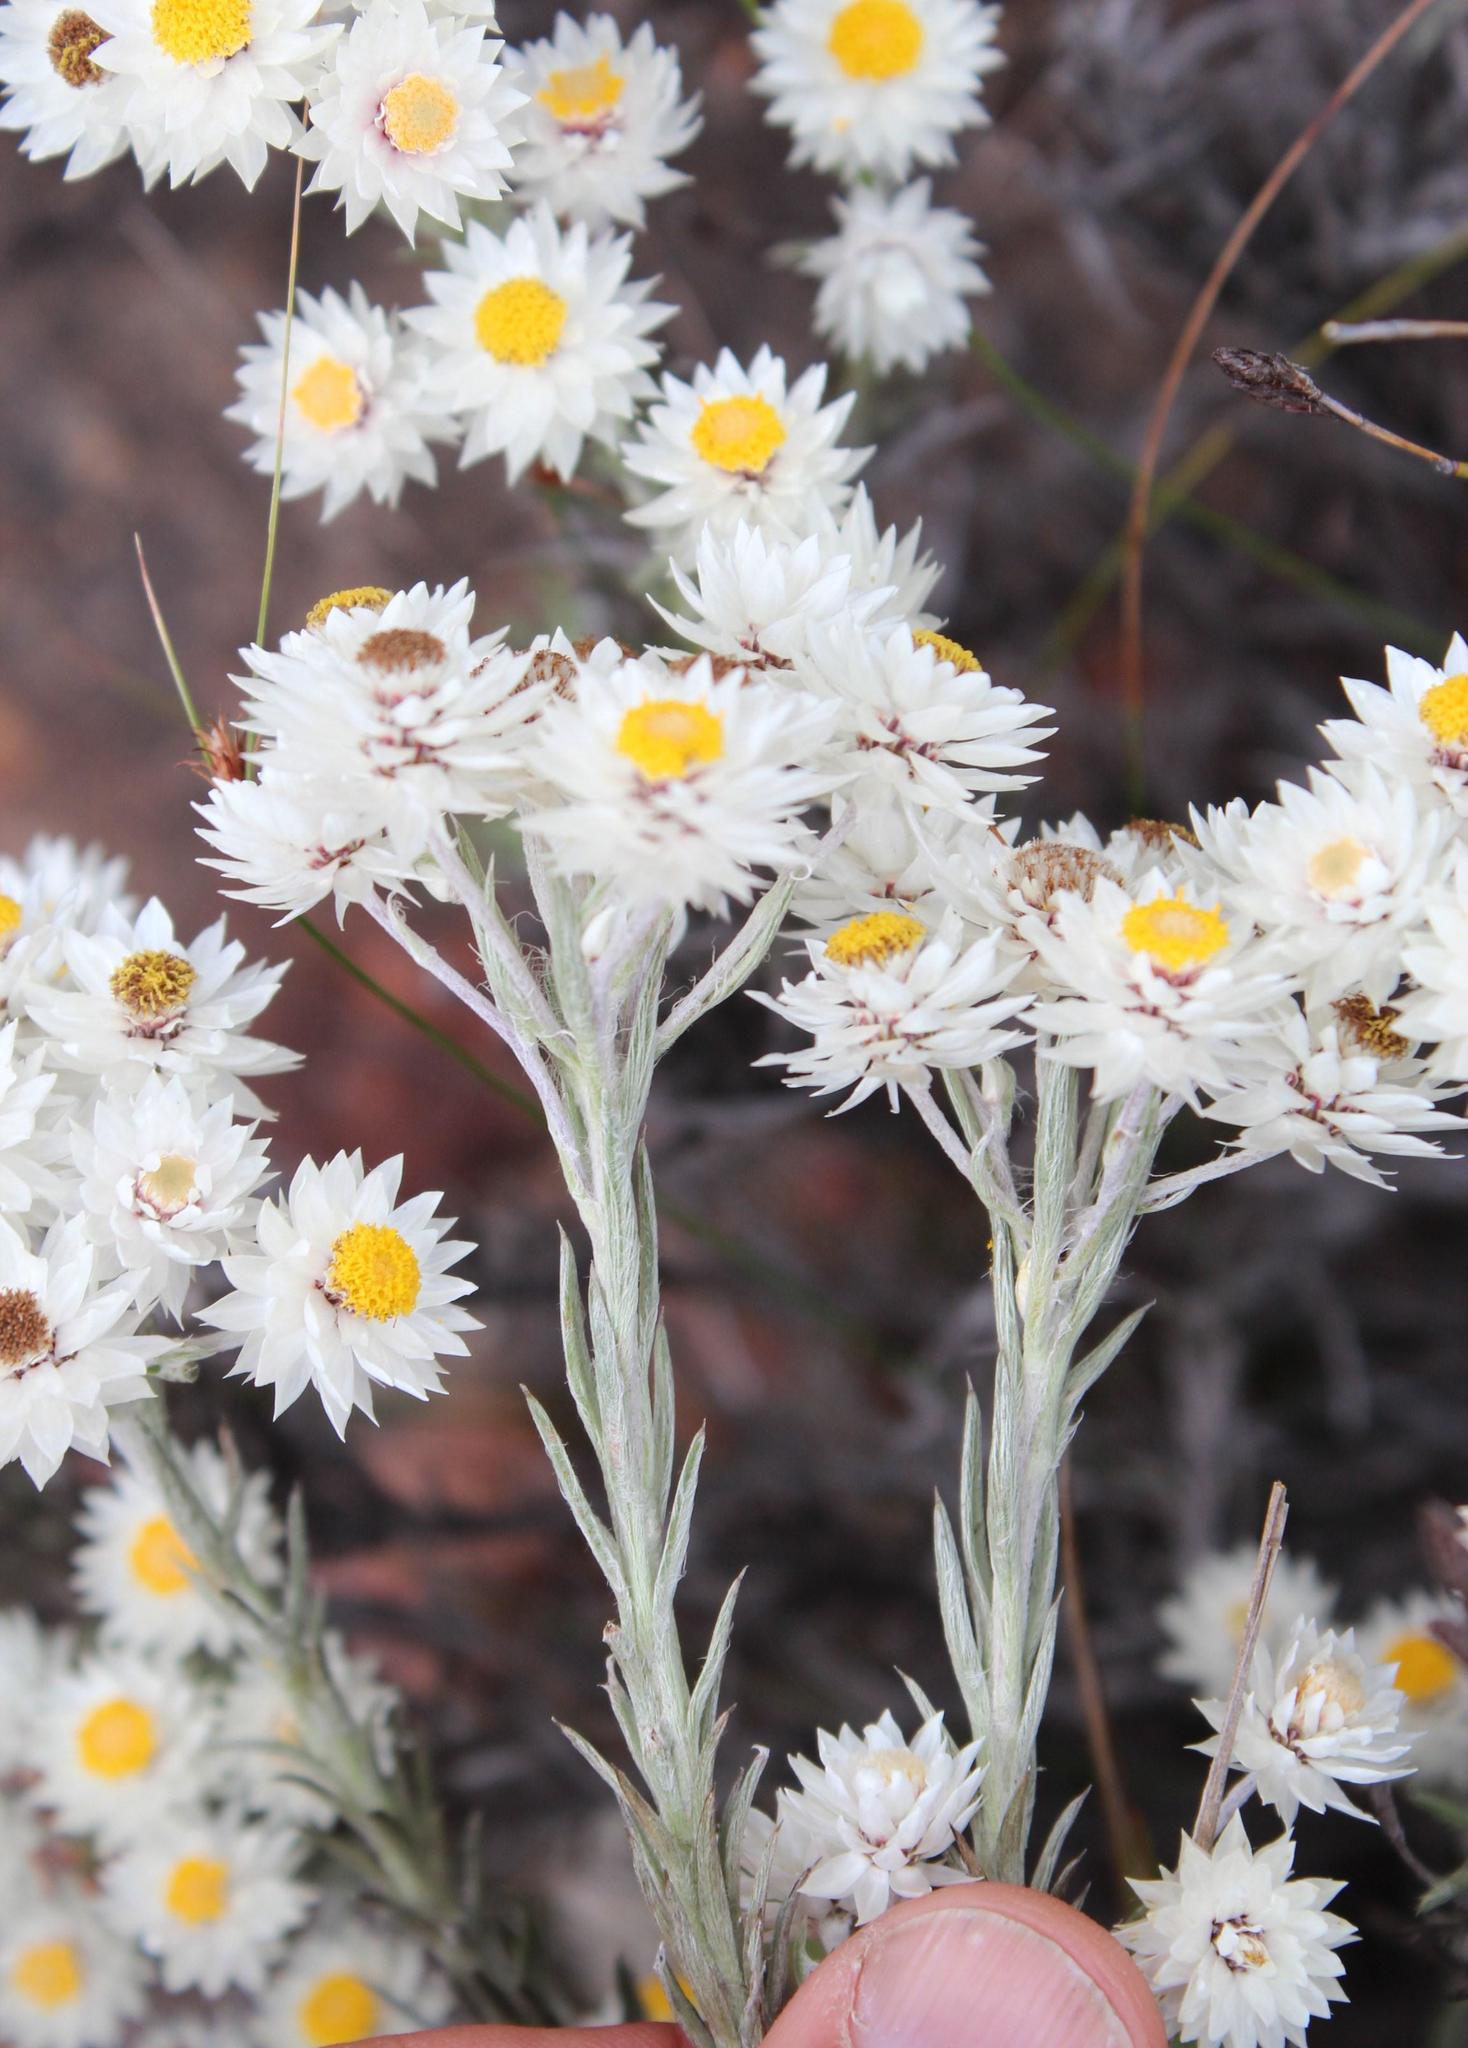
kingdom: Plantae
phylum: Tracheophyta
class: Magnoliopsida
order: Asterales
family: Asteraceae
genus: Achyranthemum
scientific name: Achyranthemum paniculatum
